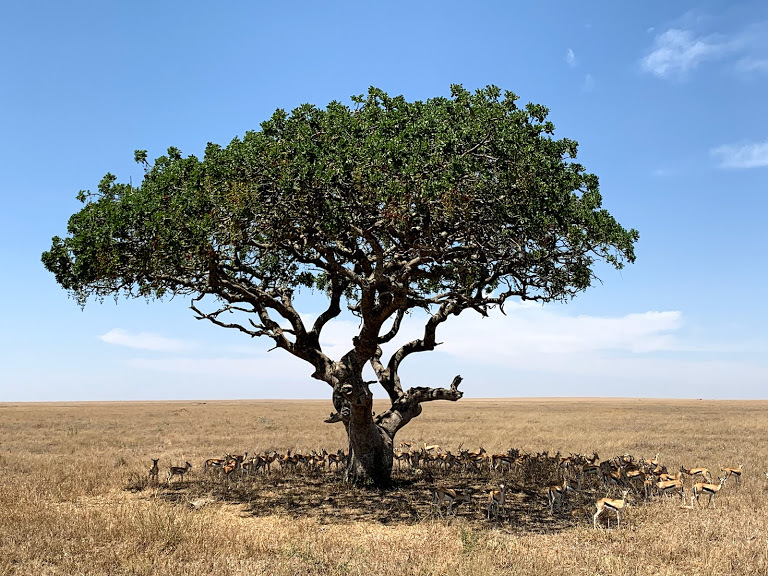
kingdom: Animalia
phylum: Chordata
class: Mammalia
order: Artiodactyla
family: Bovidae
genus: Eudorcas
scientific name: Eudorcas thomsonii
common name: Thomson's gazelle
